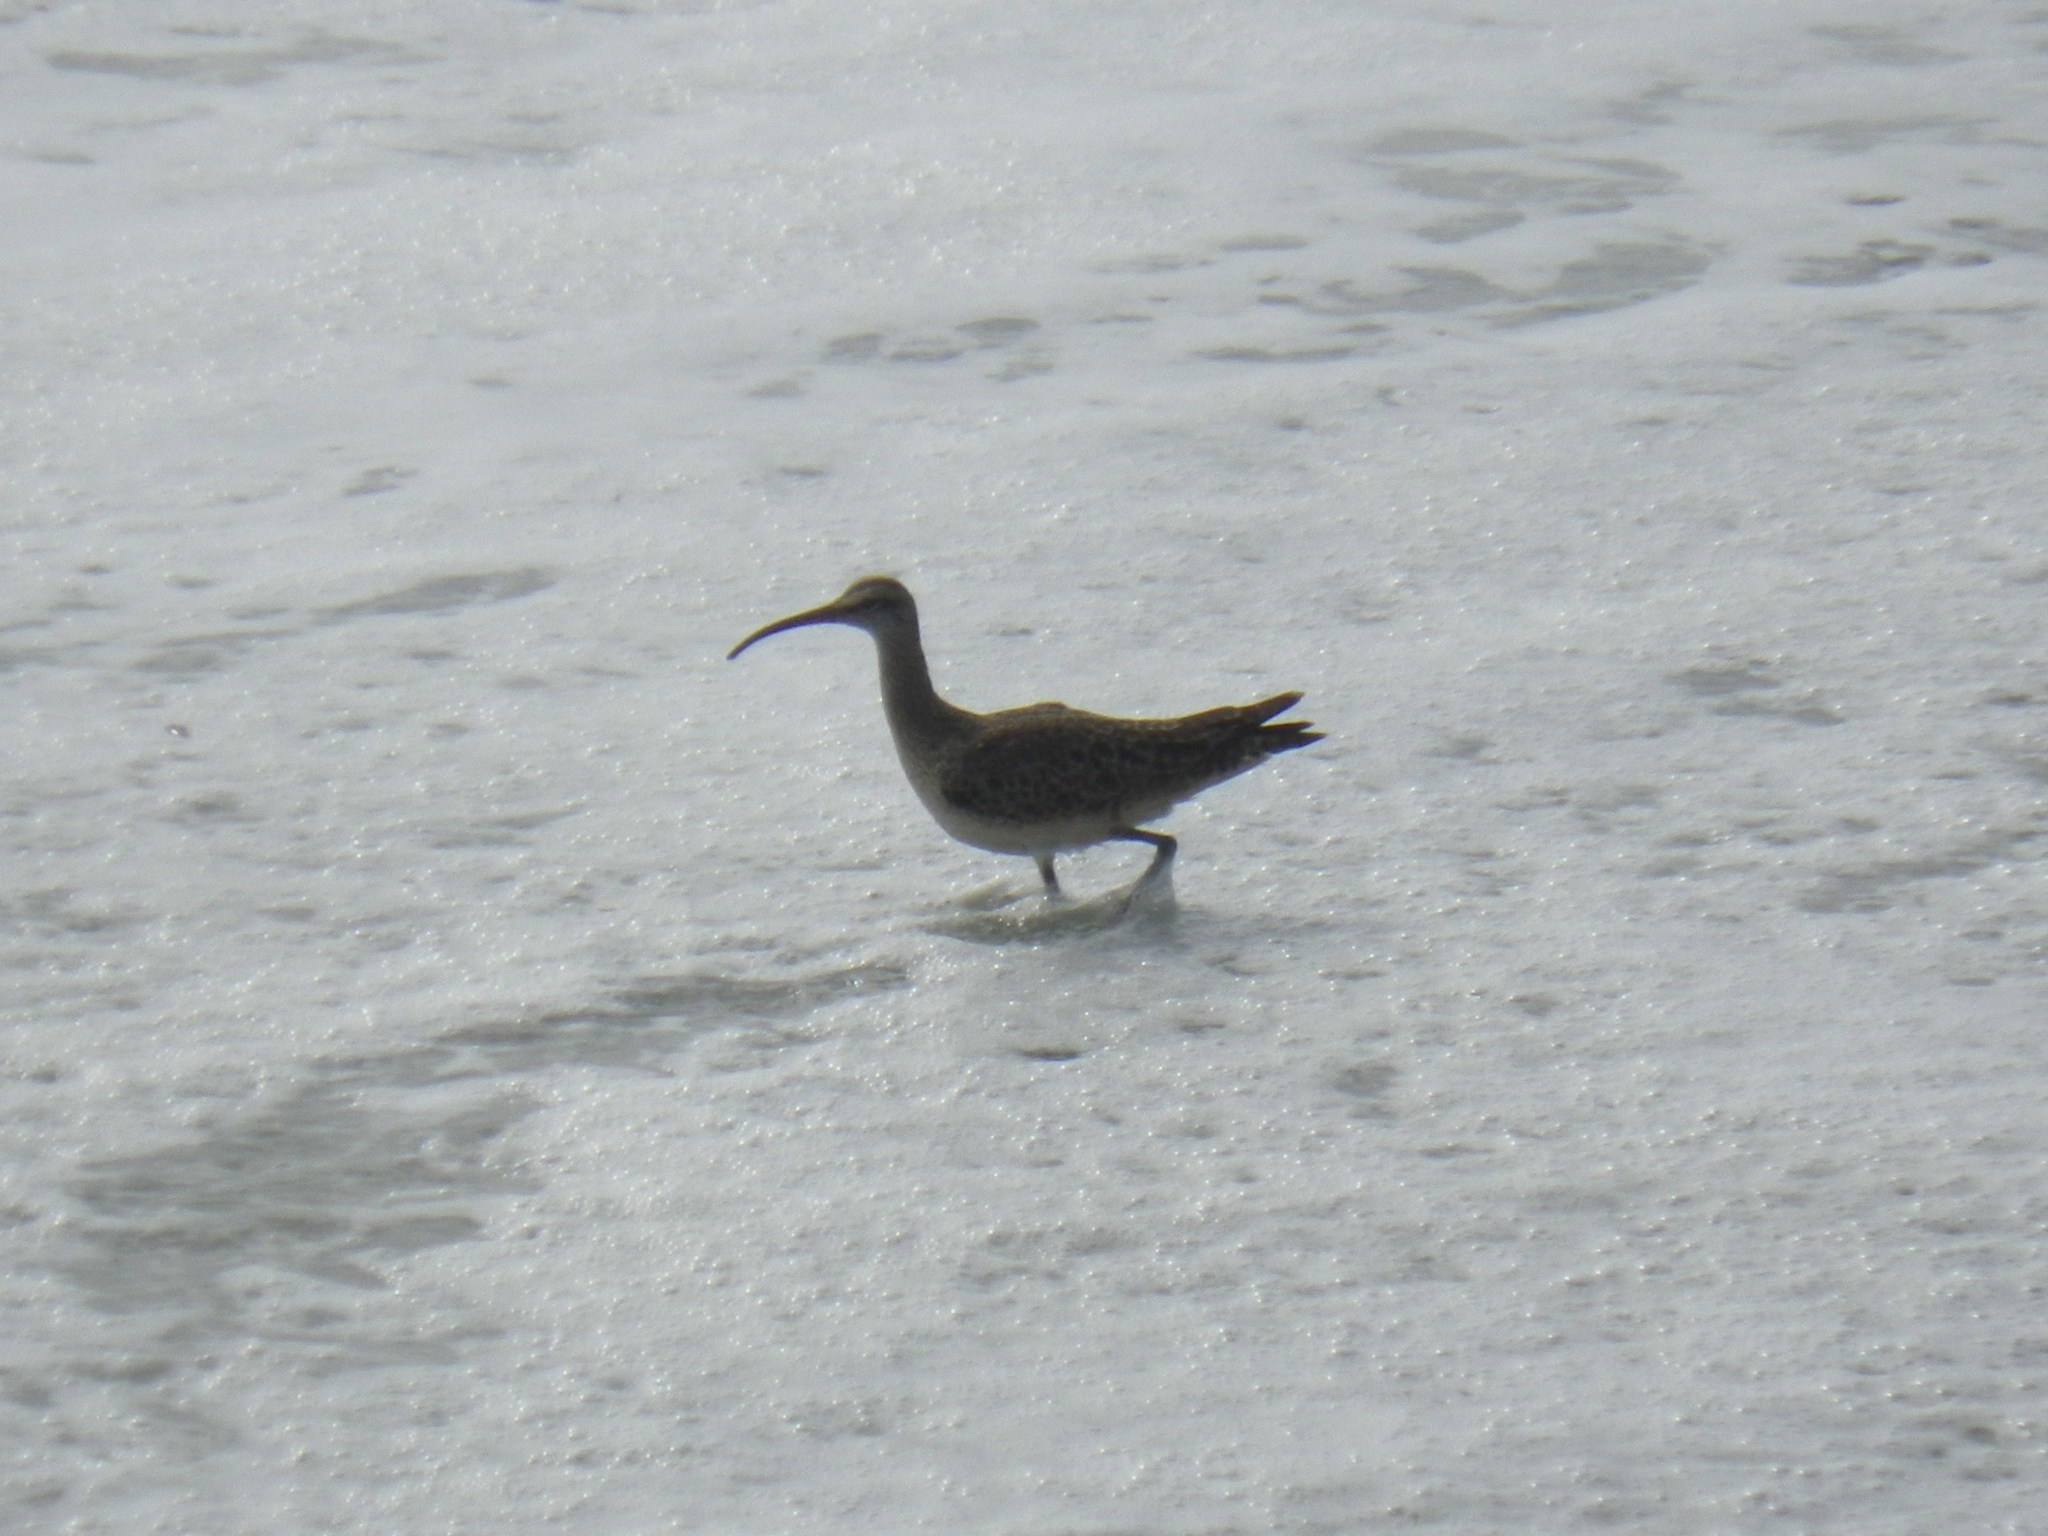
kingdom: Animalia
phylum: Chordata
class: Aves
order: Charadriiformes
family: Scolopacidae
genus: Numenius
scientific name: Numenius phaeopus
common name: Whimbrel
